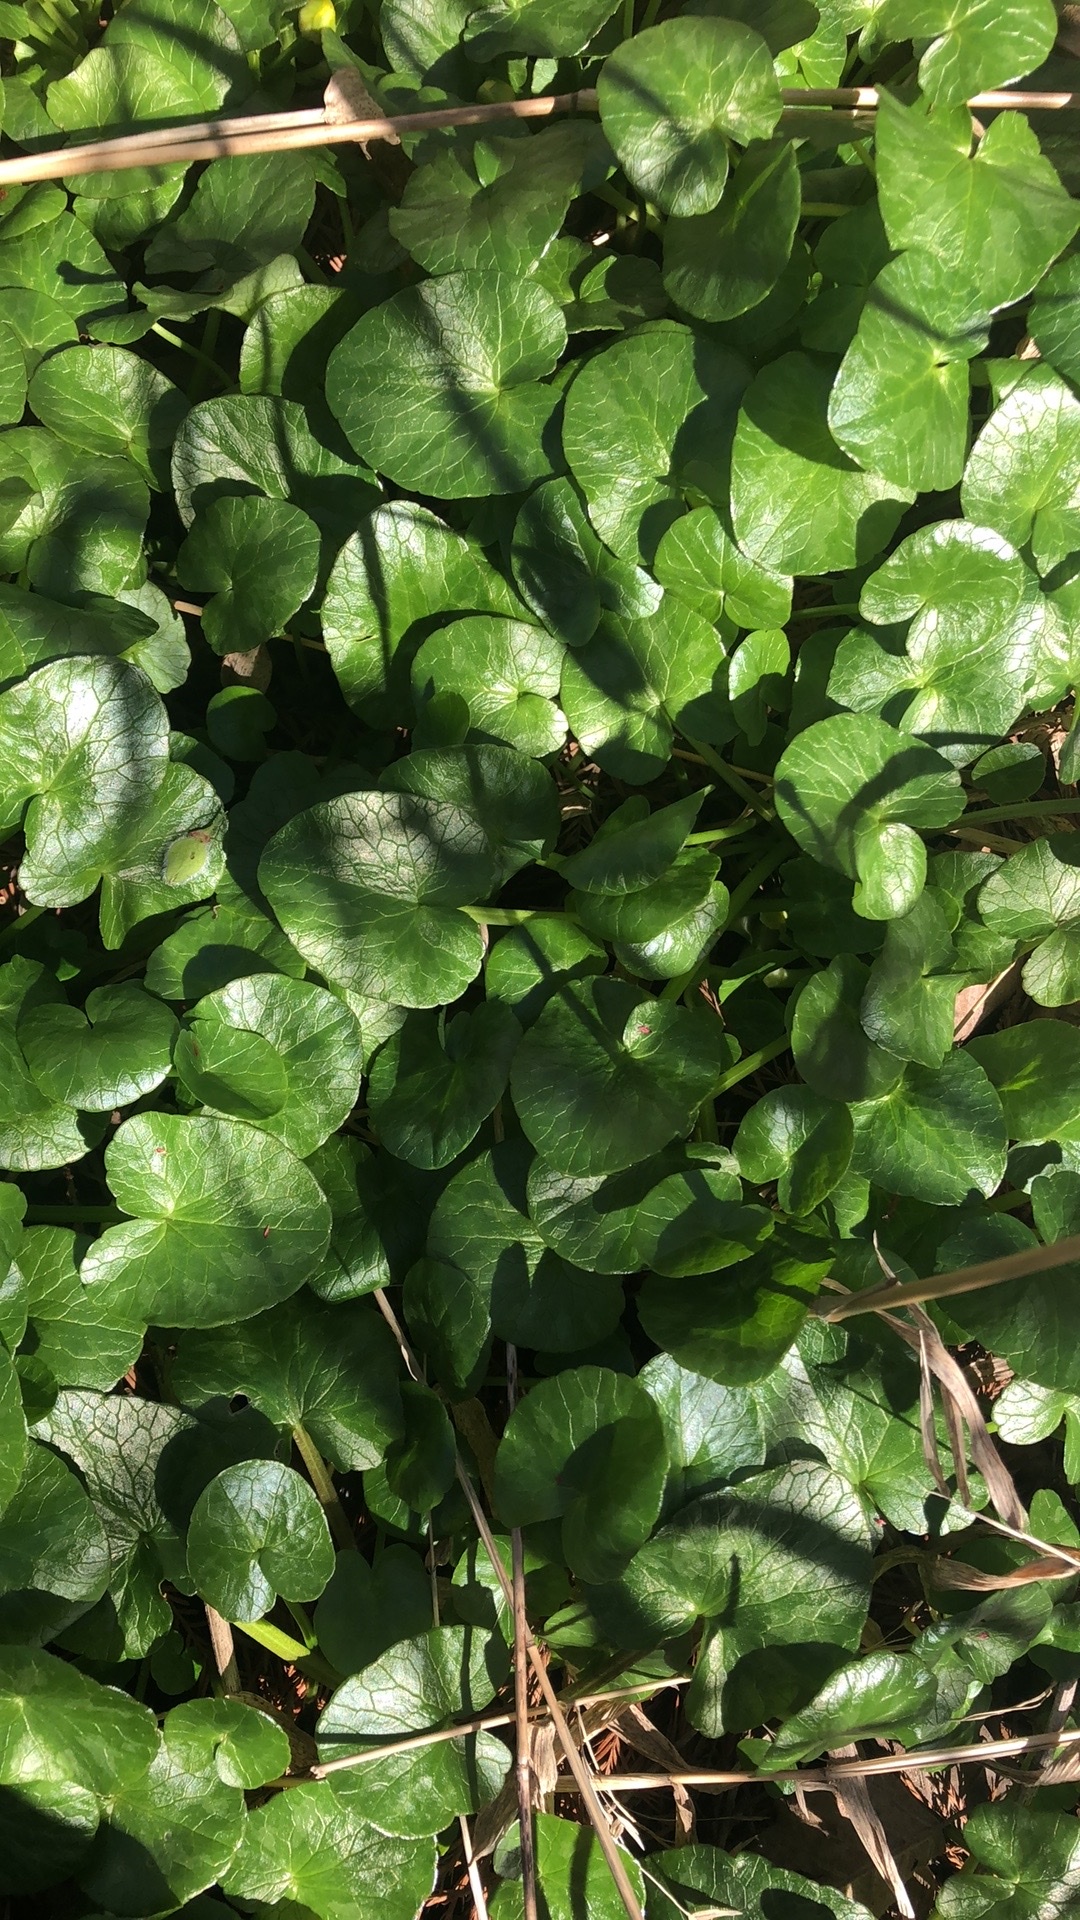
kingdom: Plantae
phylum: Tracheophyta
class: Magnoliopsida
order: Ranunculales
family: Ranunculaceae
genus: Ficaria
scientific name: Ficaria verna
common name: Lesser celandine
